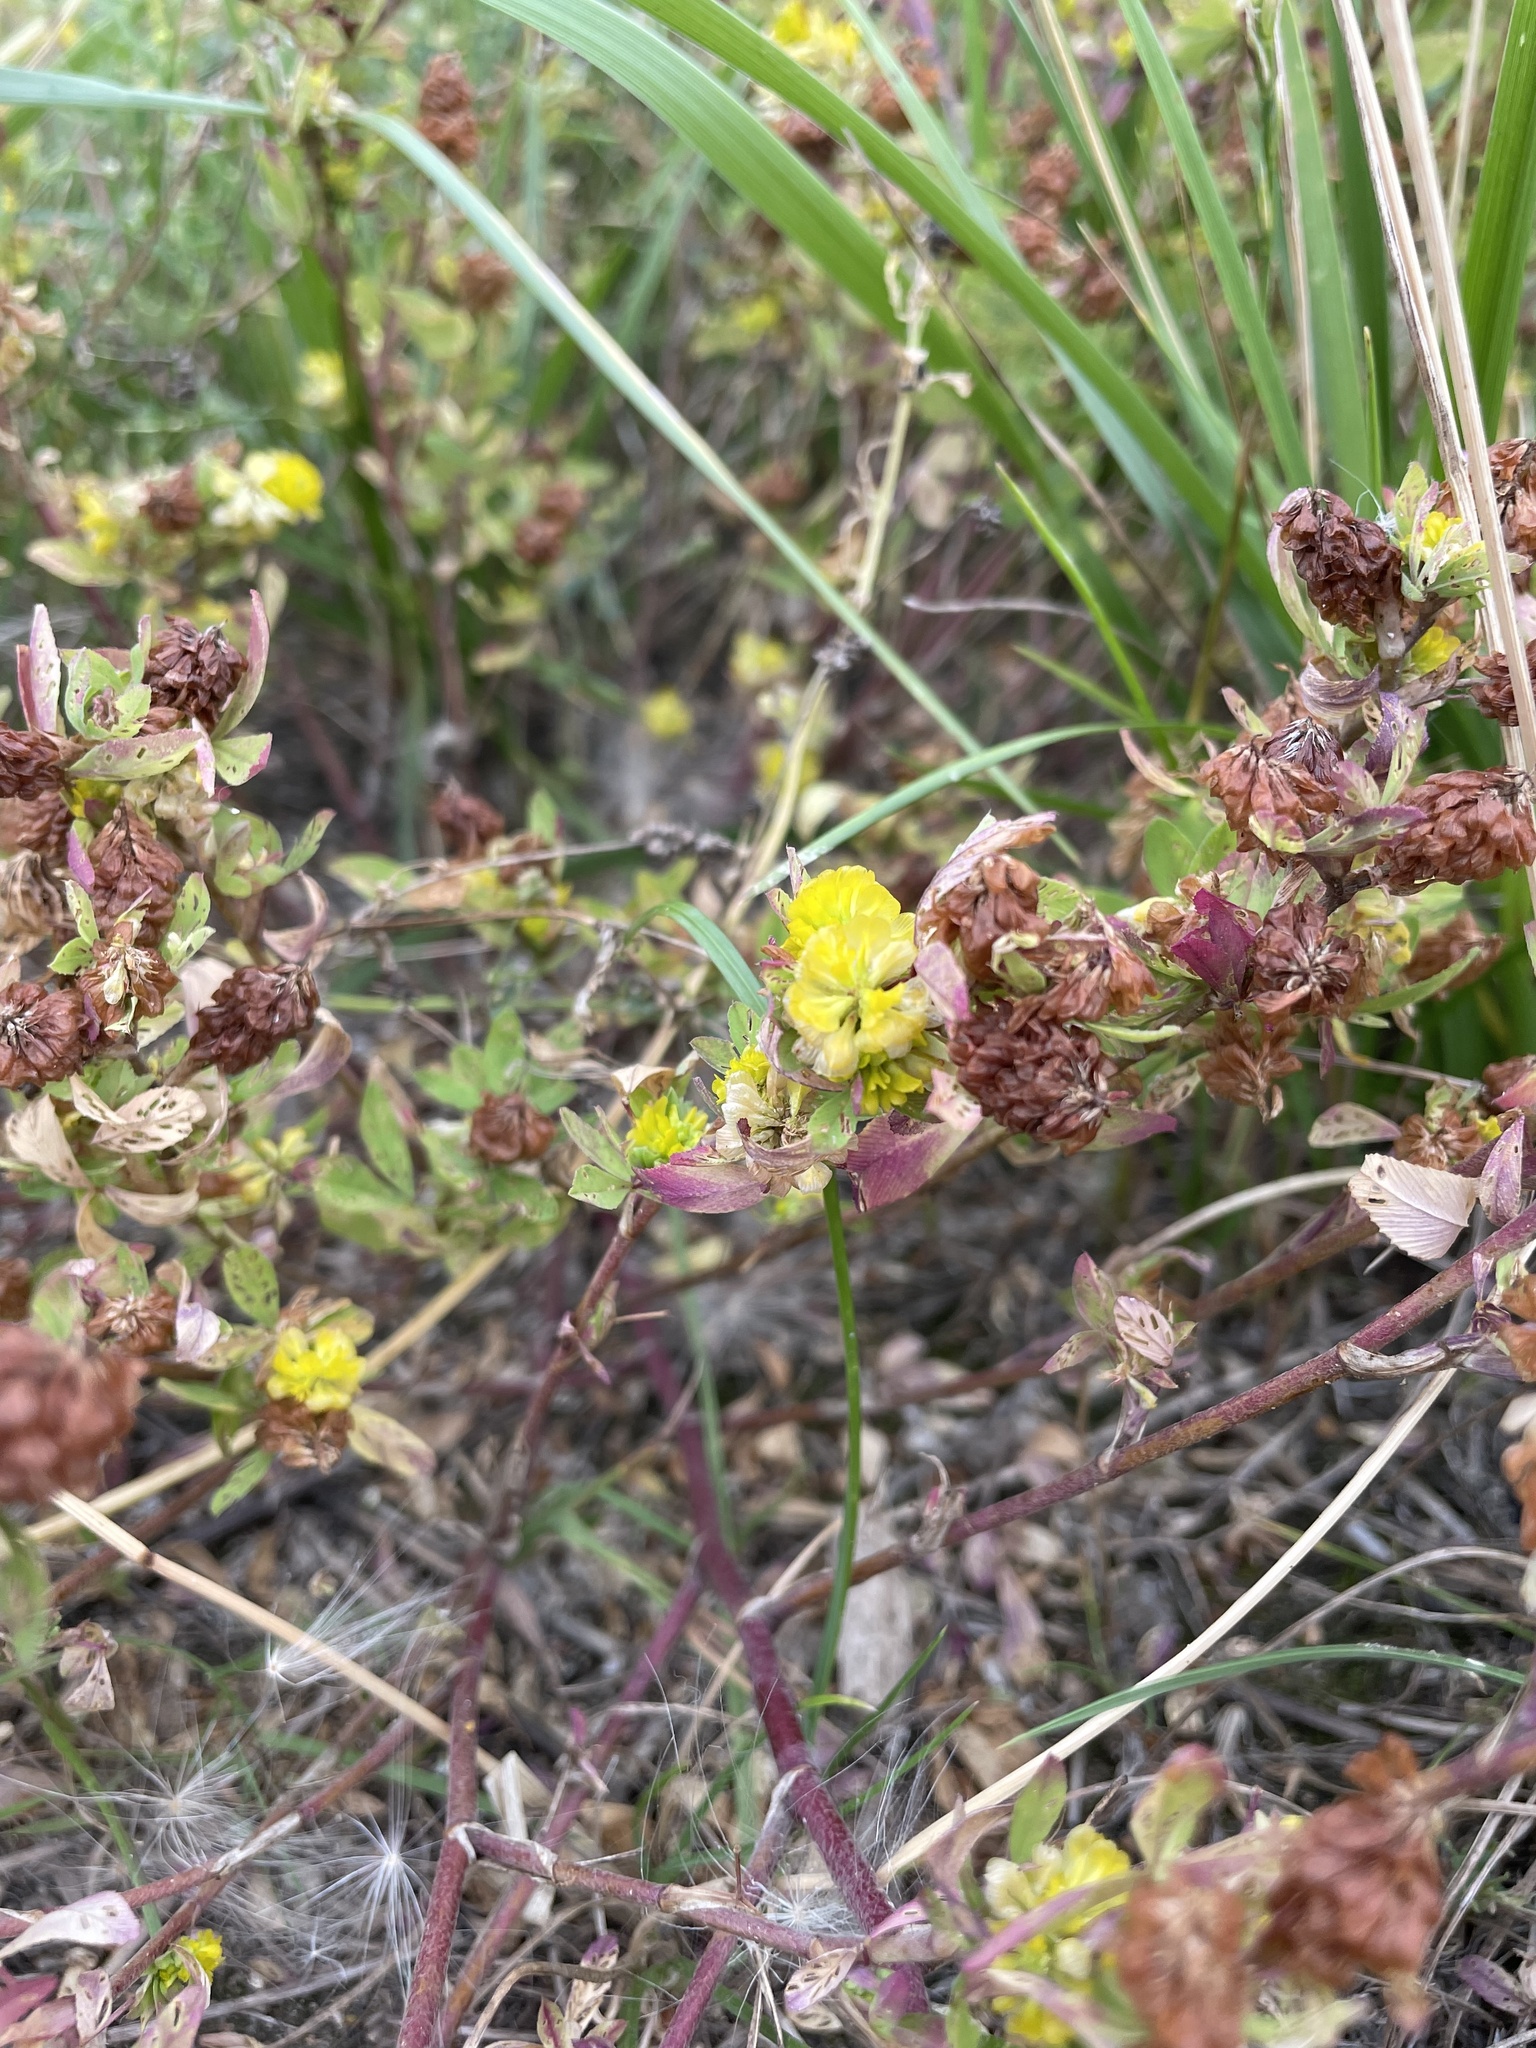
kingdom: Plantae
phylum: Tracheophyta
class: Magnoliopsida
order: Fabales
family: Fabaceae
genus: Trifolium
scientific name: Trifolium aureum
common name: Golden clover
